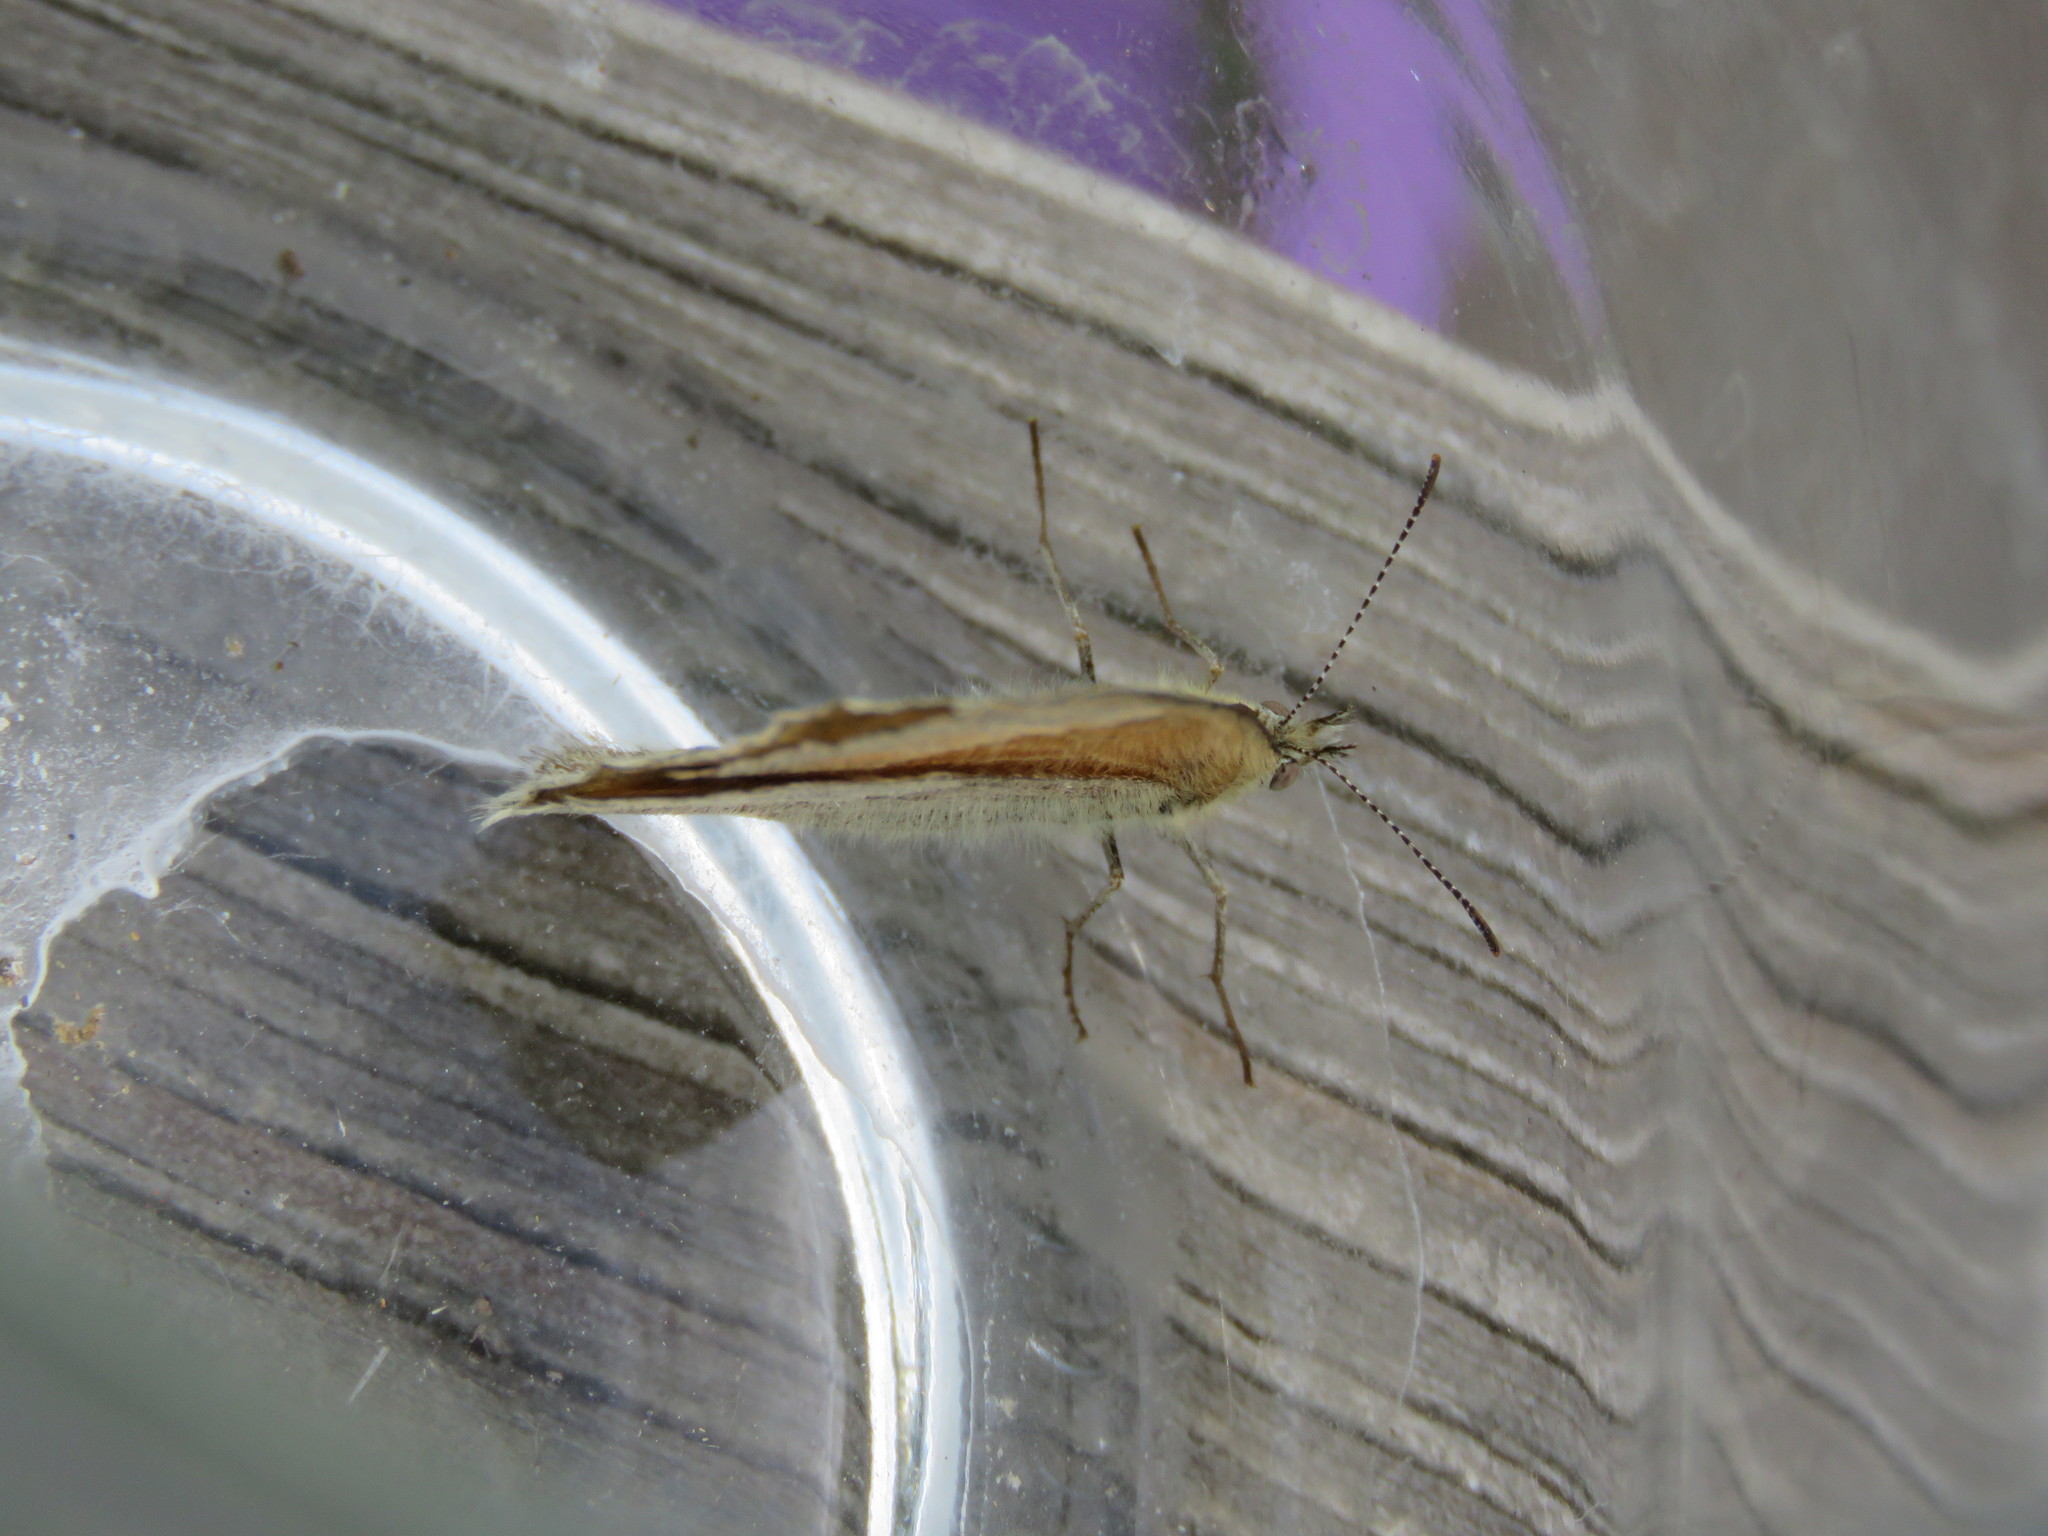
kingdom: Animalia
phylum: Arthropoda
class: Insecta
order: Lepidoptera
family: Nymphalidae
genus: Coenonympha
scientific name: Coenonympha california
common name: Common ringlet
